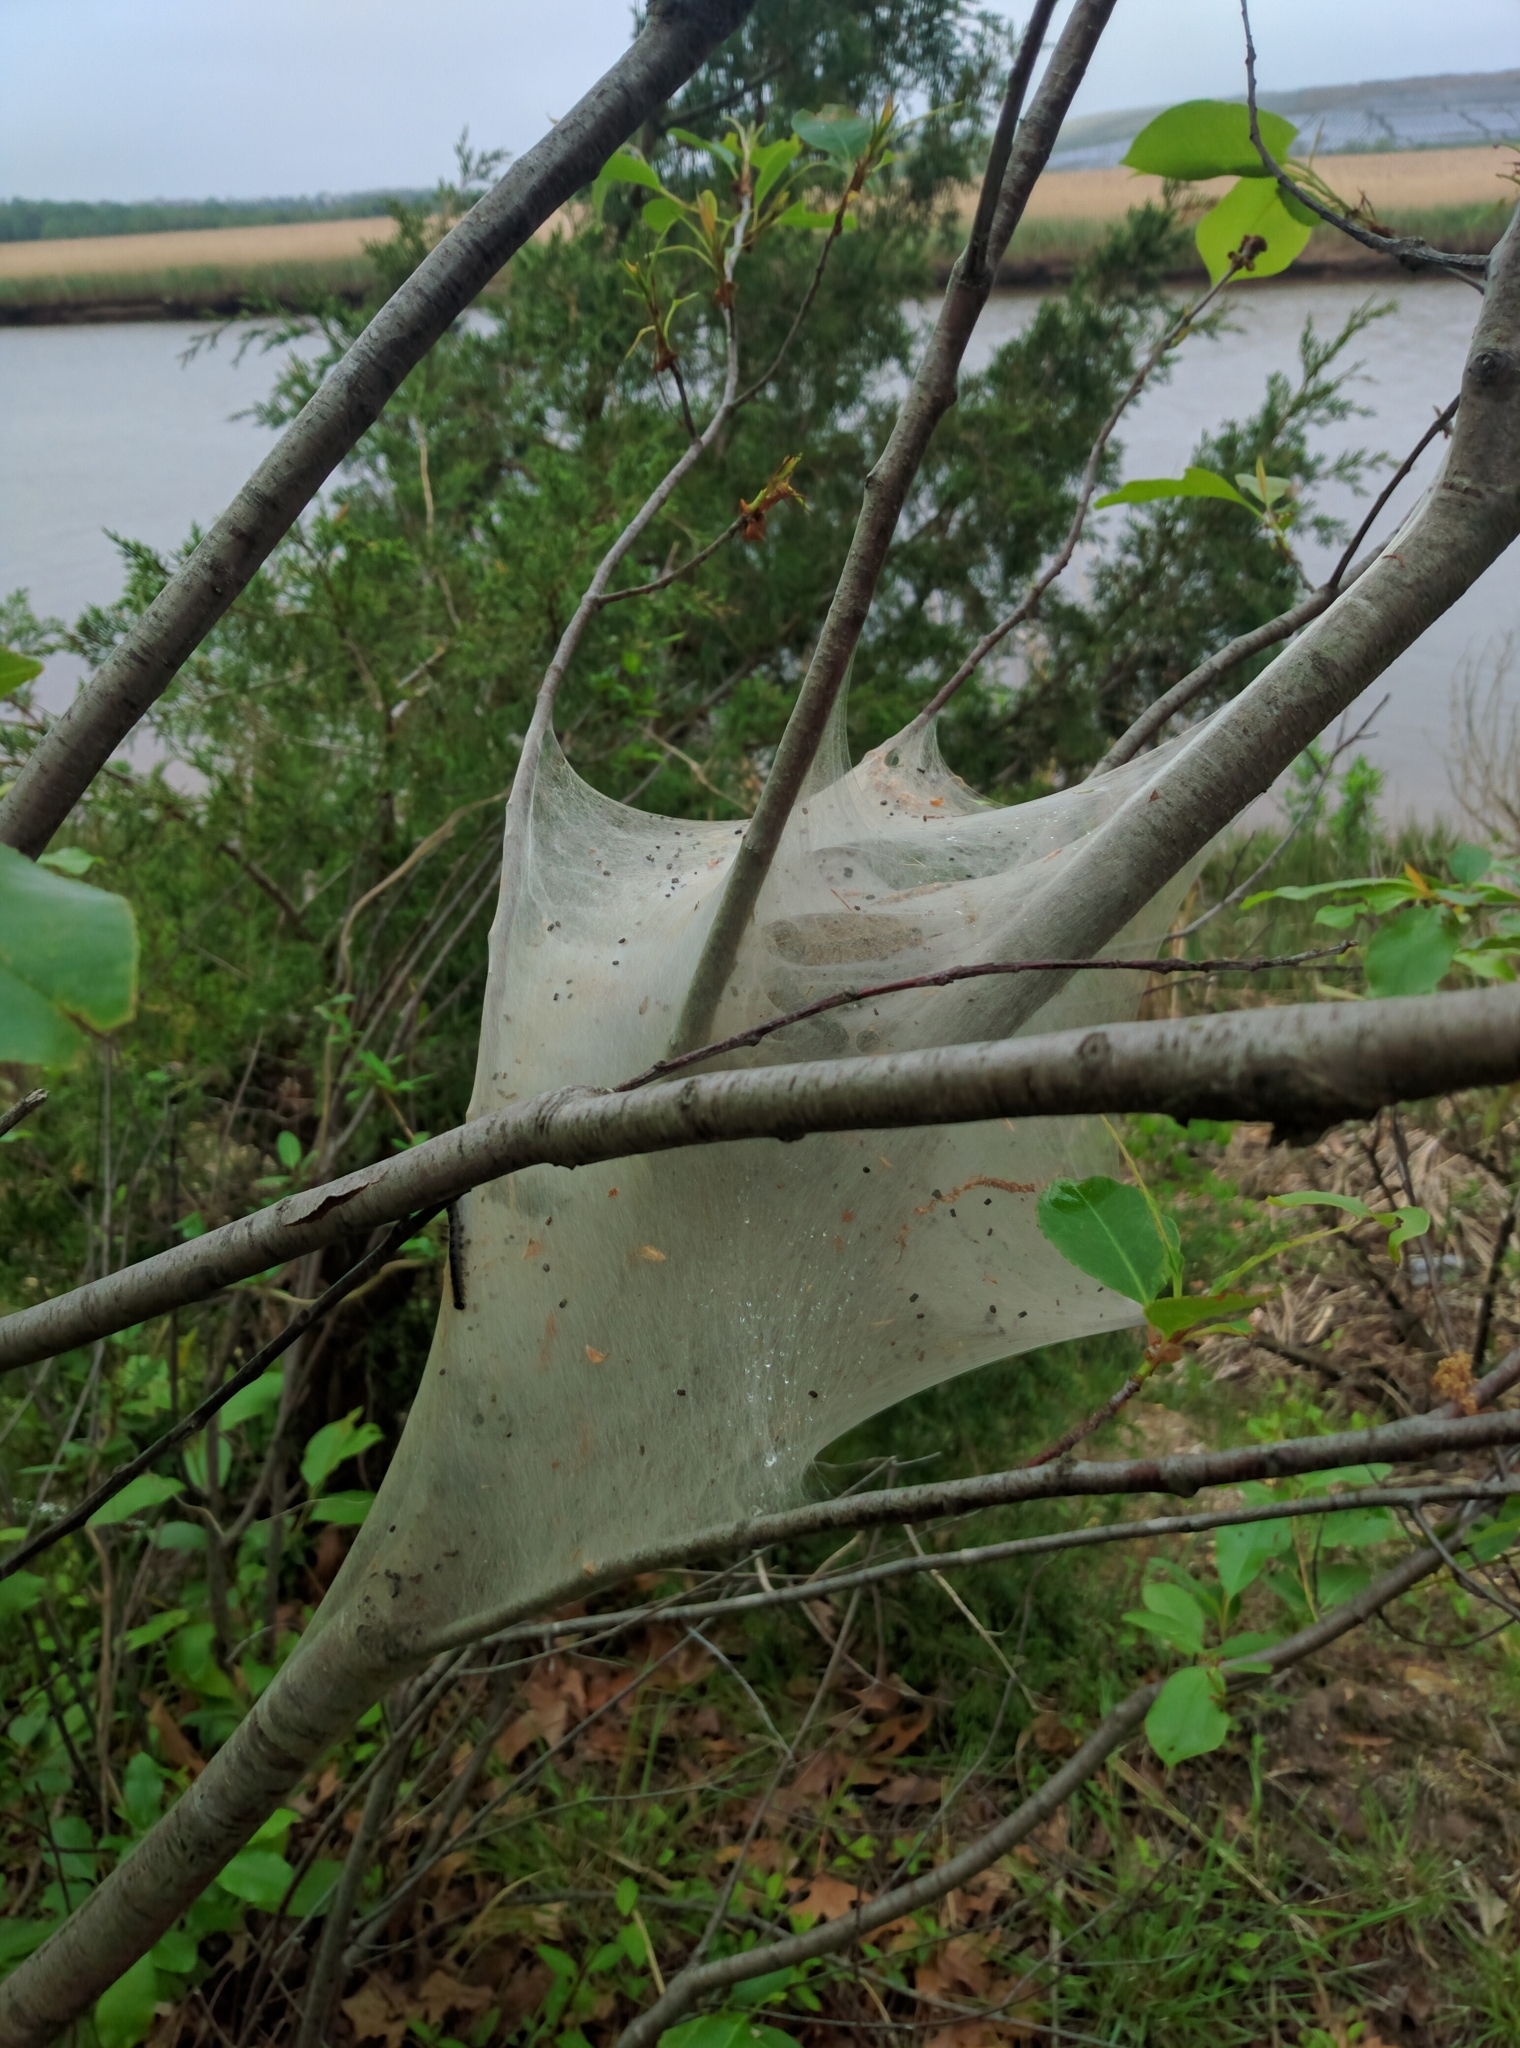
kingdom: Animalia
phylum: Arthropoda
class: Insecta
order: Lepidoptera
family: Lasiocampidae
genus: Malacosoma
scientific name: Malacosoma americana
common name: Eastern tent caterpillar moth
